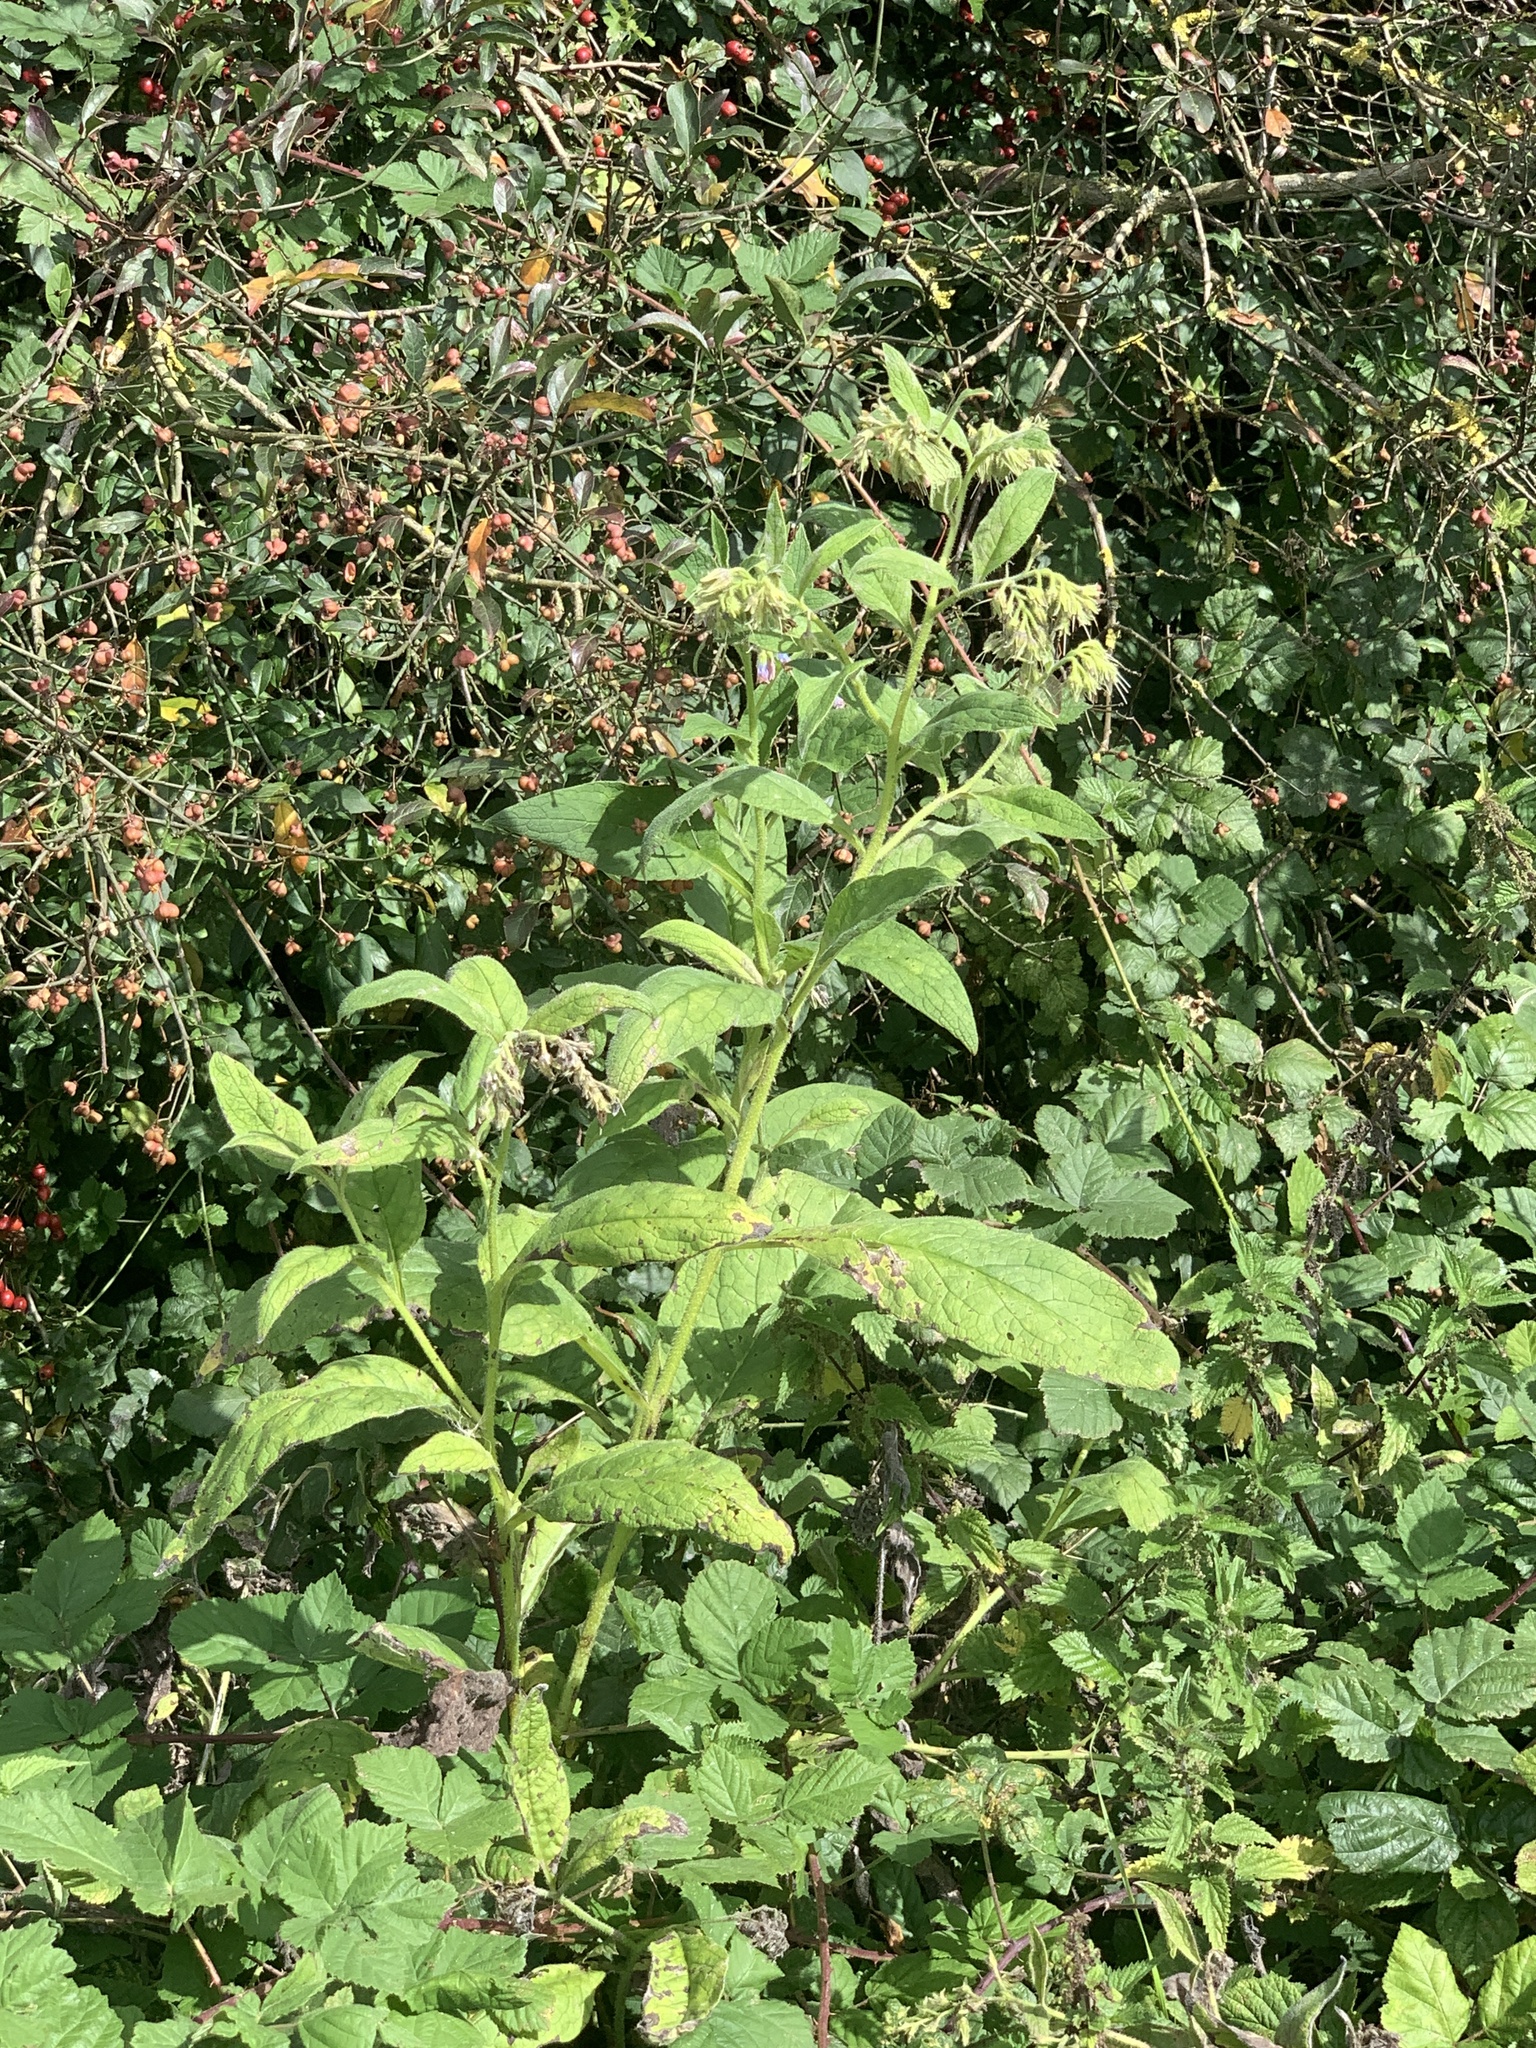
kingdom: Plantae
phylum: Tracheophyta
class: Magnoliopsida
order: Boraginales
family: Boraginaceae
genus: Symphytum
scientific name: Symphytum officinale
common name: Common comfrey
